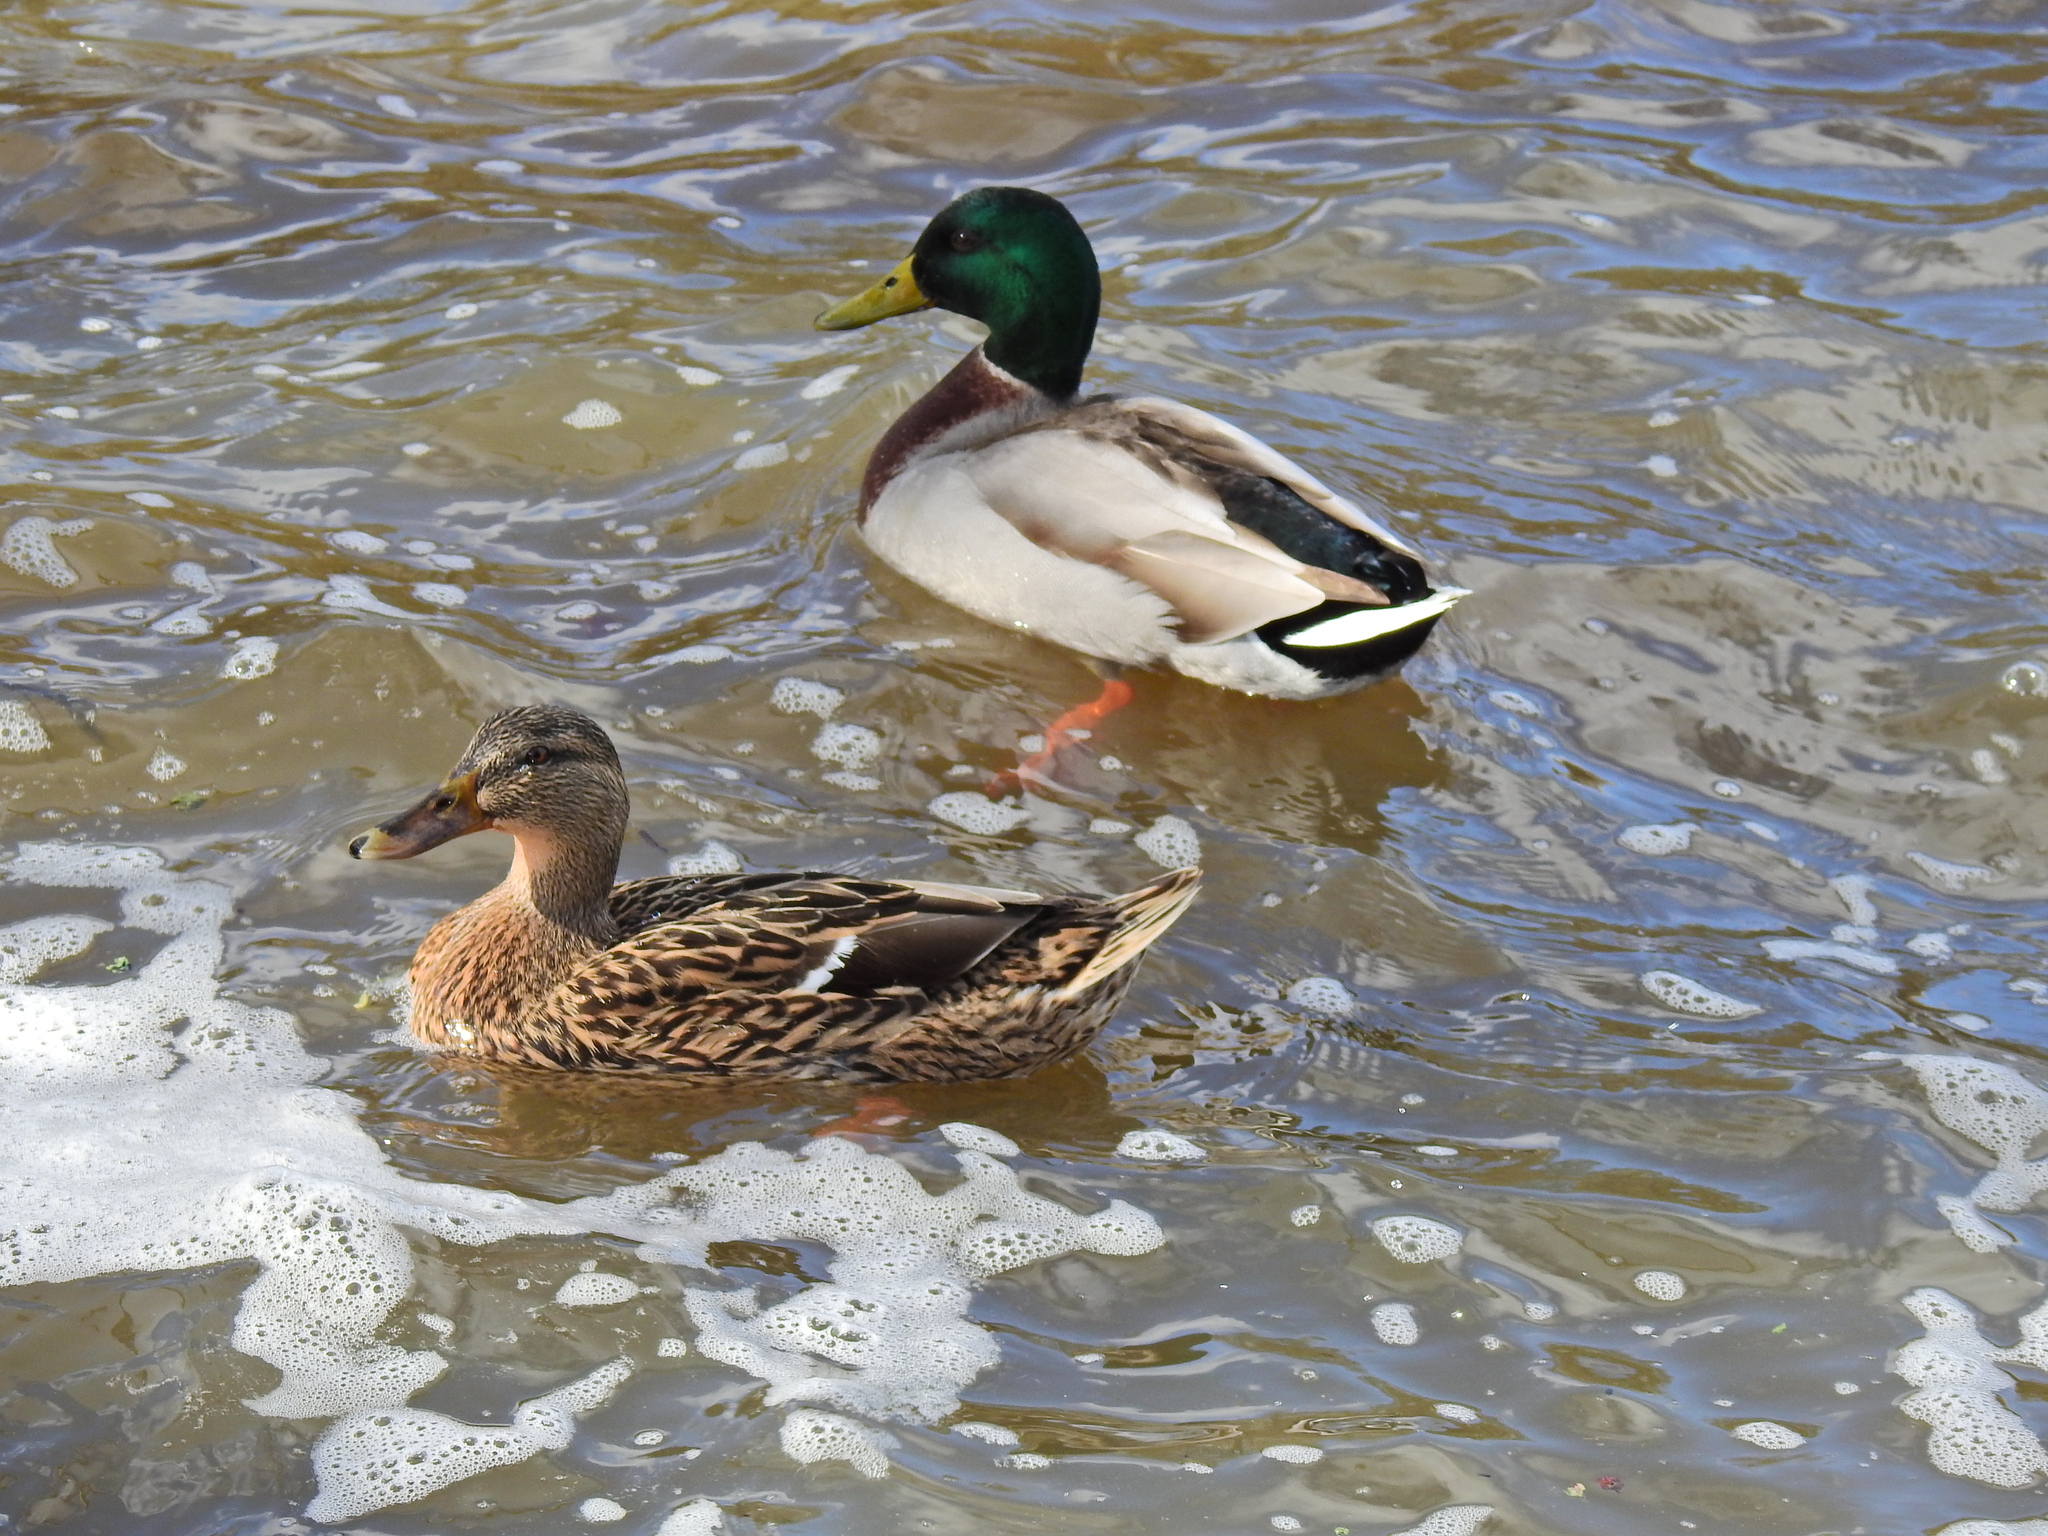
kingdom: Animalia
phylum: Chordata
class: Aves
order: Anseriformes
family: Anatidae
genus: Anas
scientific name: Anas platyrhynchos
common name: Mallard
